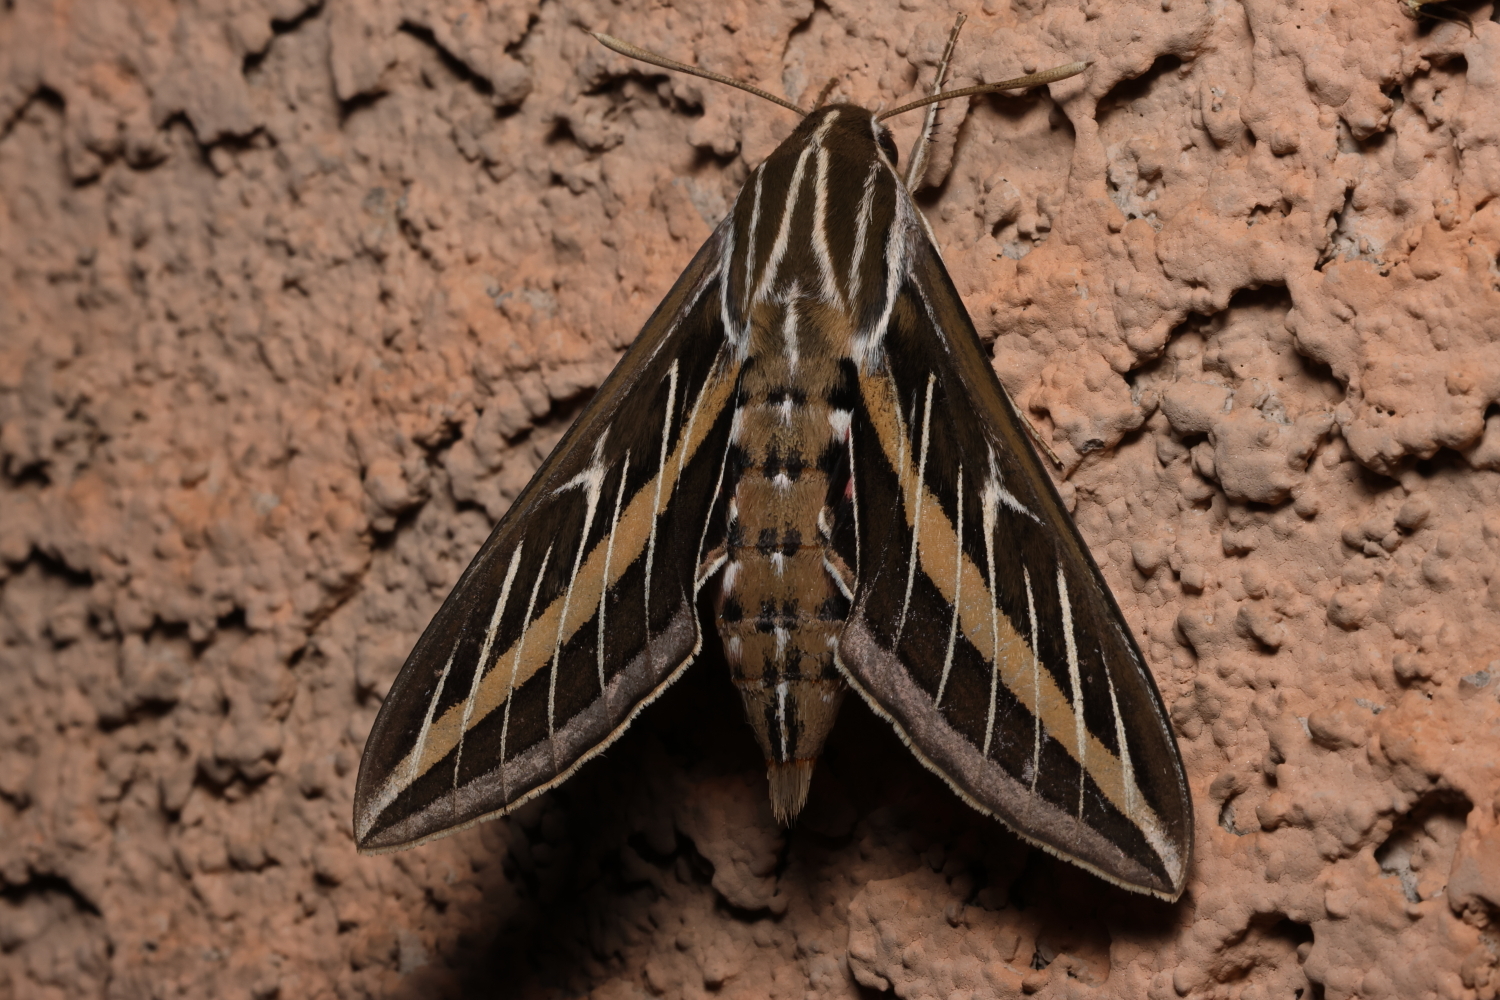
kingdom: Animalia
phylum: Arthropoda
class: Insecta
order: Lepidoptera
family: Sphingidae
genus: Hyles
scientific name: Hyles lineata
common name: White-lined sphinx
